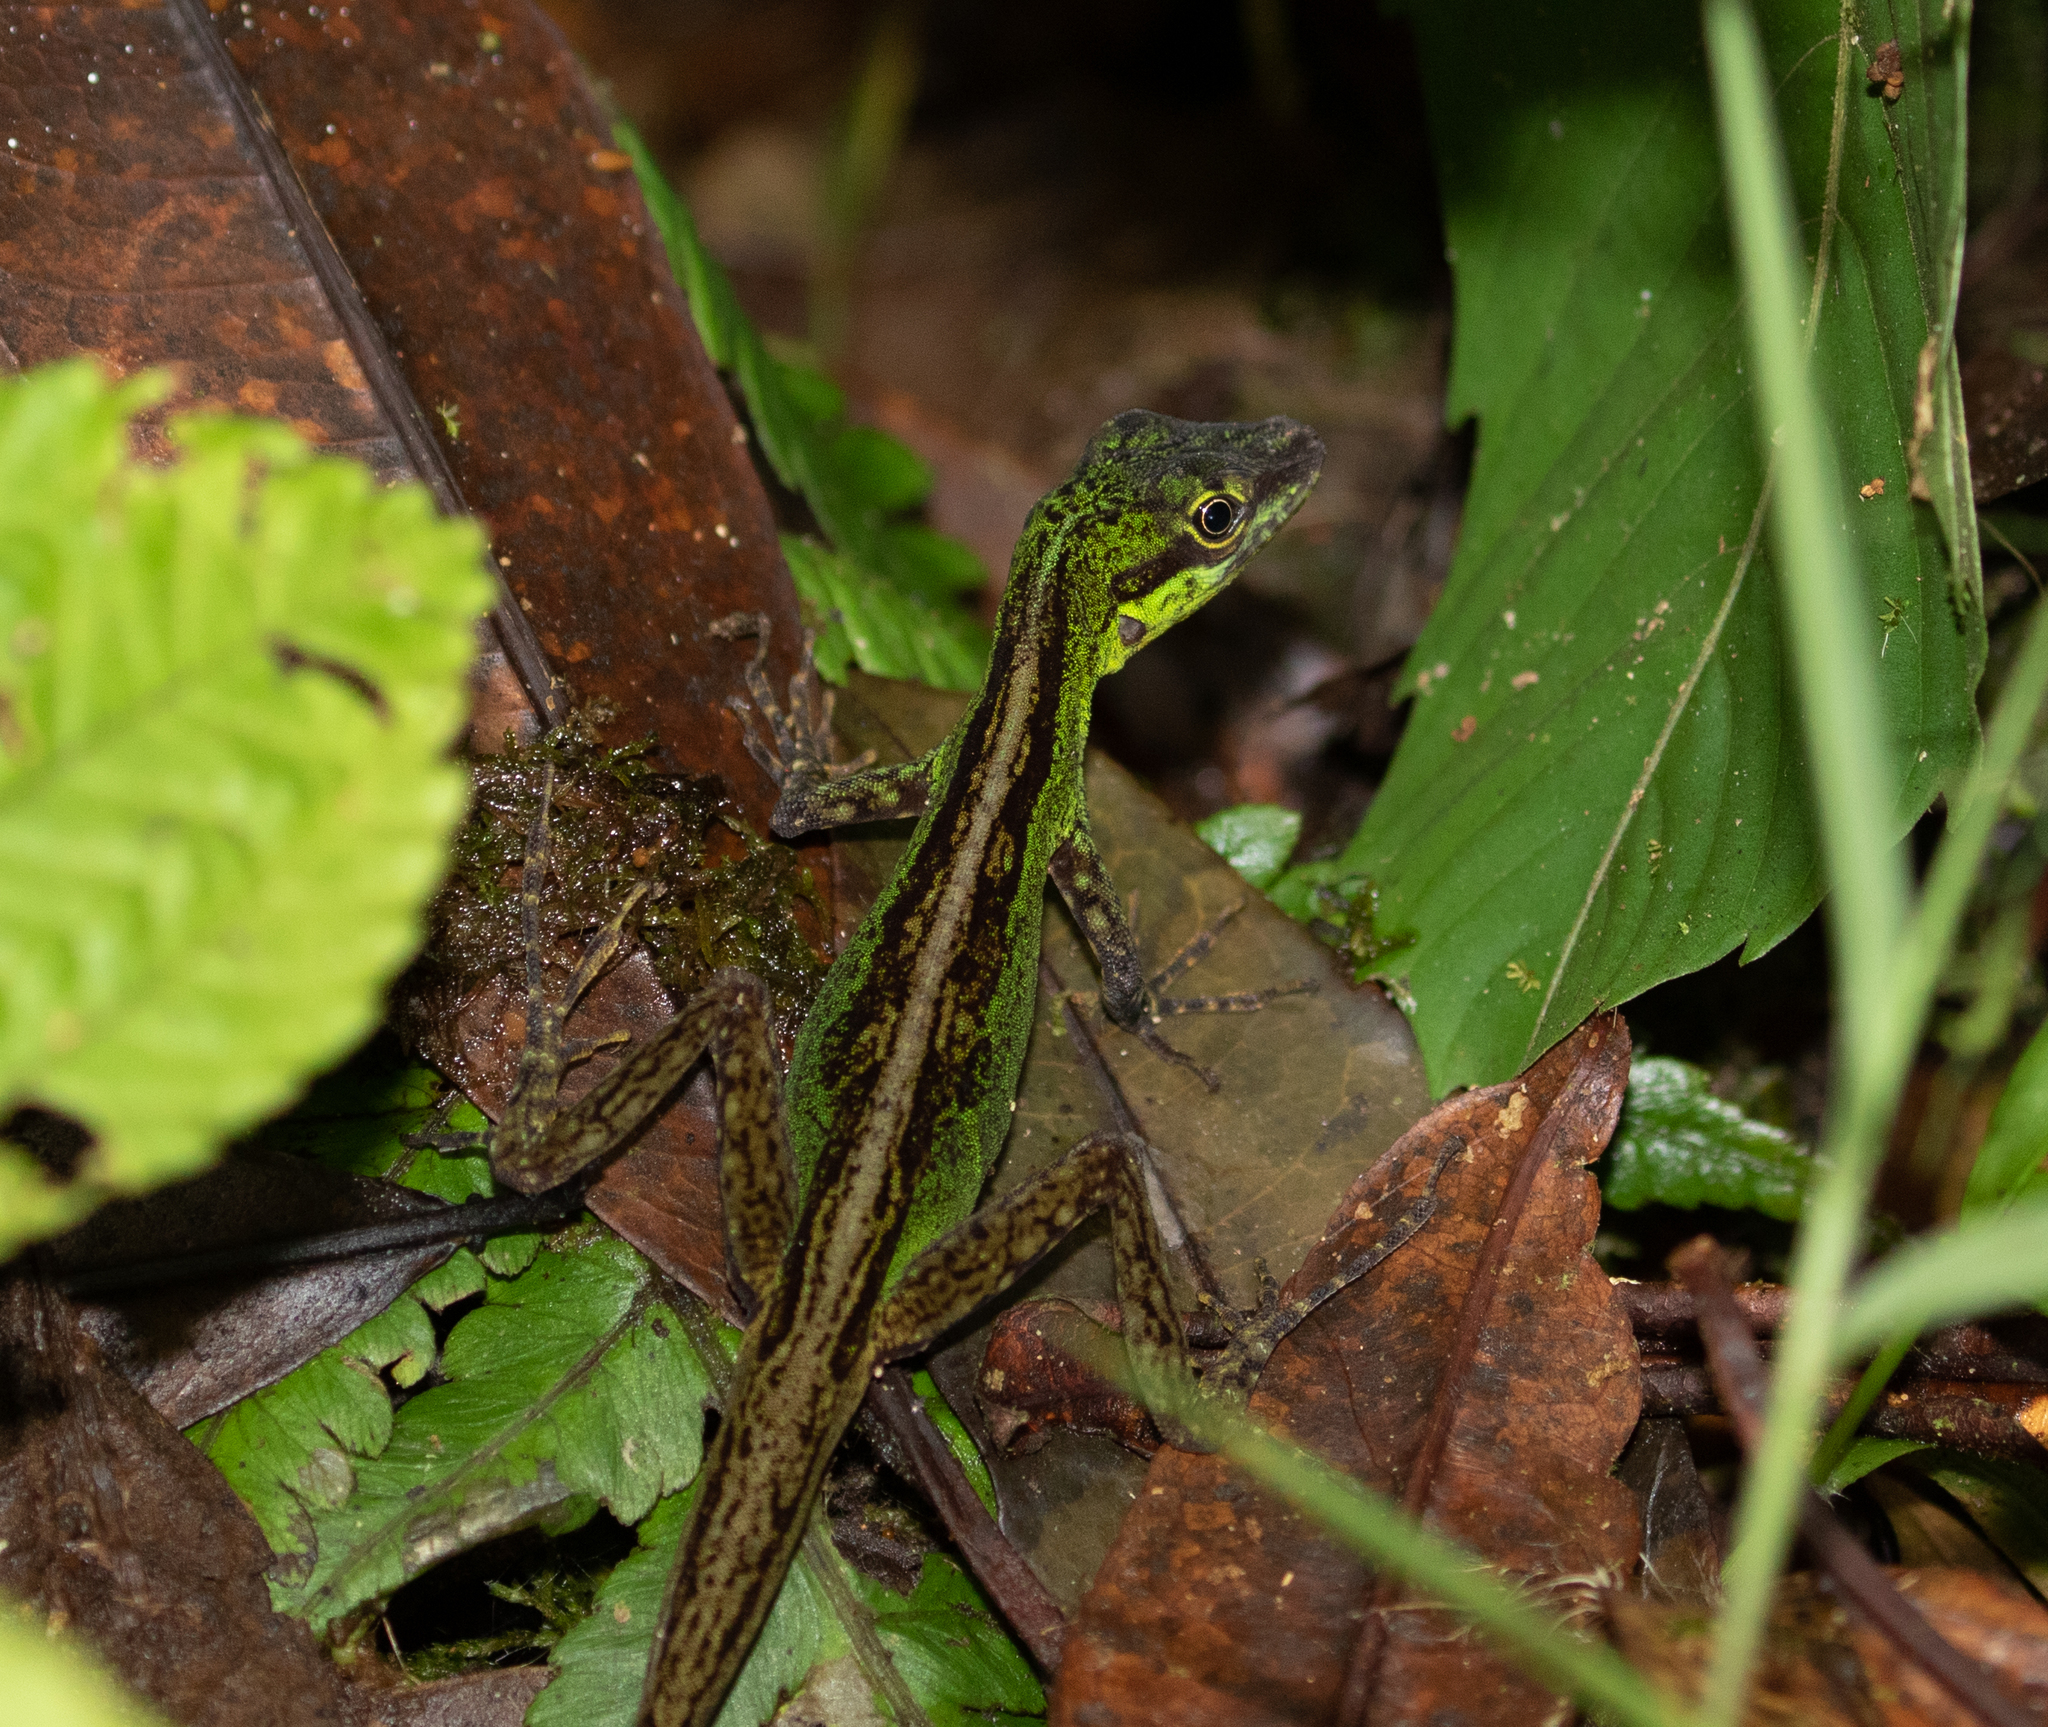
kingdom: Animalia
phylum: Chordata
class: Squamata
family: Dactyloidae
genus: Anolis
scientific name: Anolis ventrimaculatus
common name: Speckled anole
